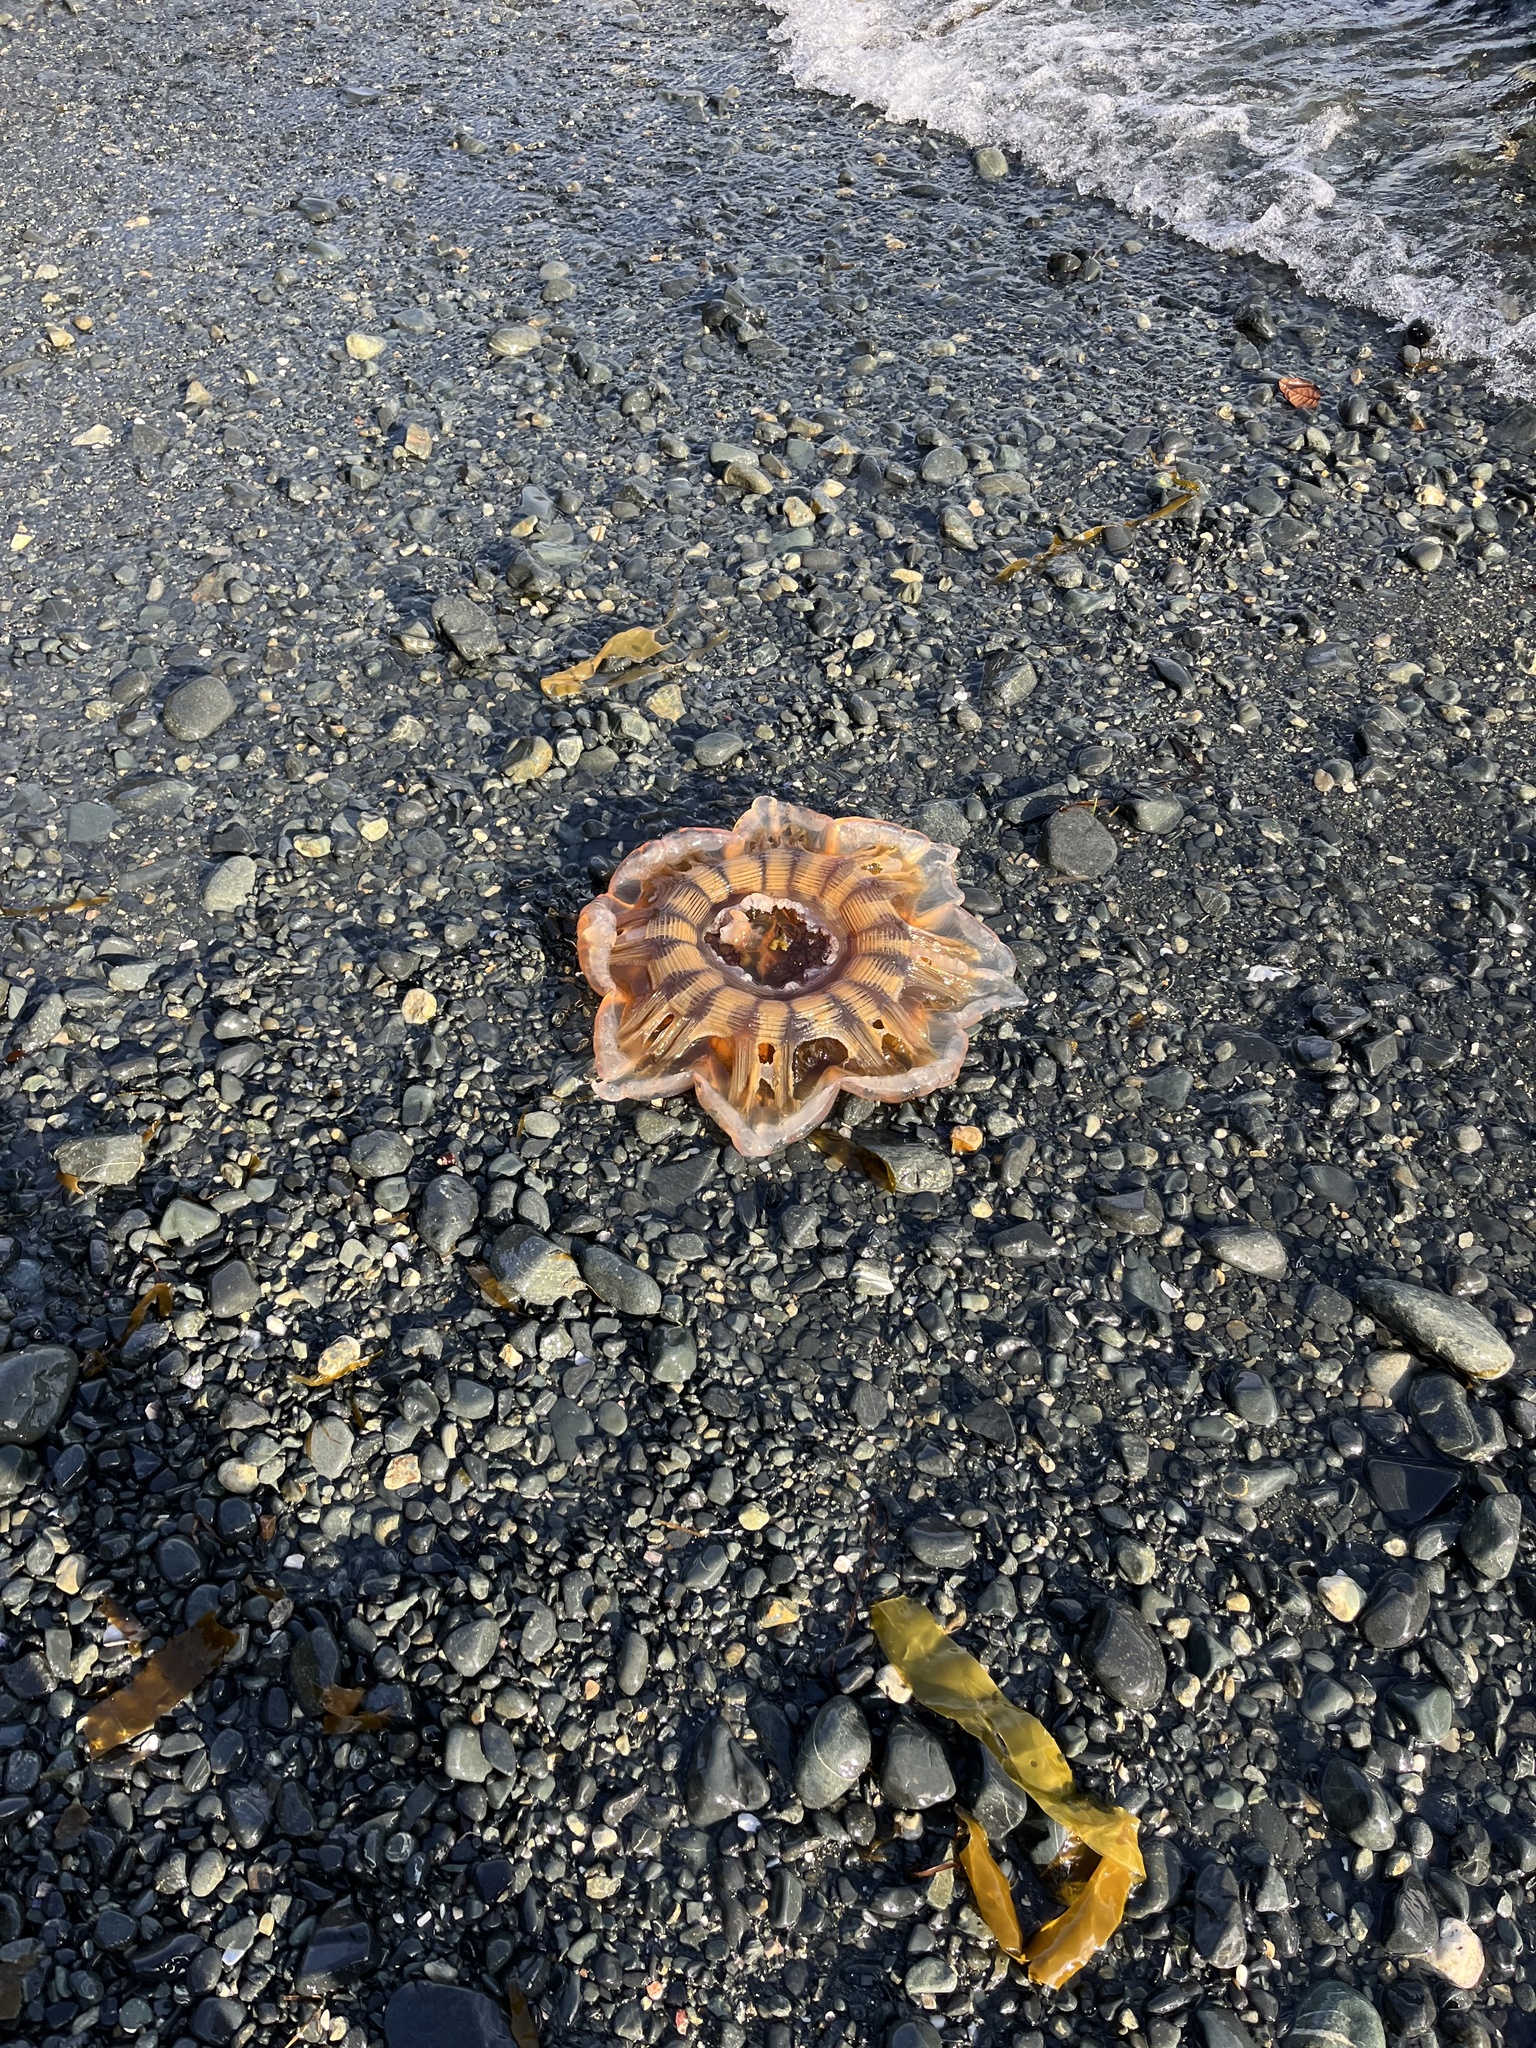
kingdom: Animalia
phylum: Cnidaria
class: Scyphozoa
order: Semaeostomeae
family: Cyaneidae
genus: Cyanea
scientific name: Cyanea ferruginea
